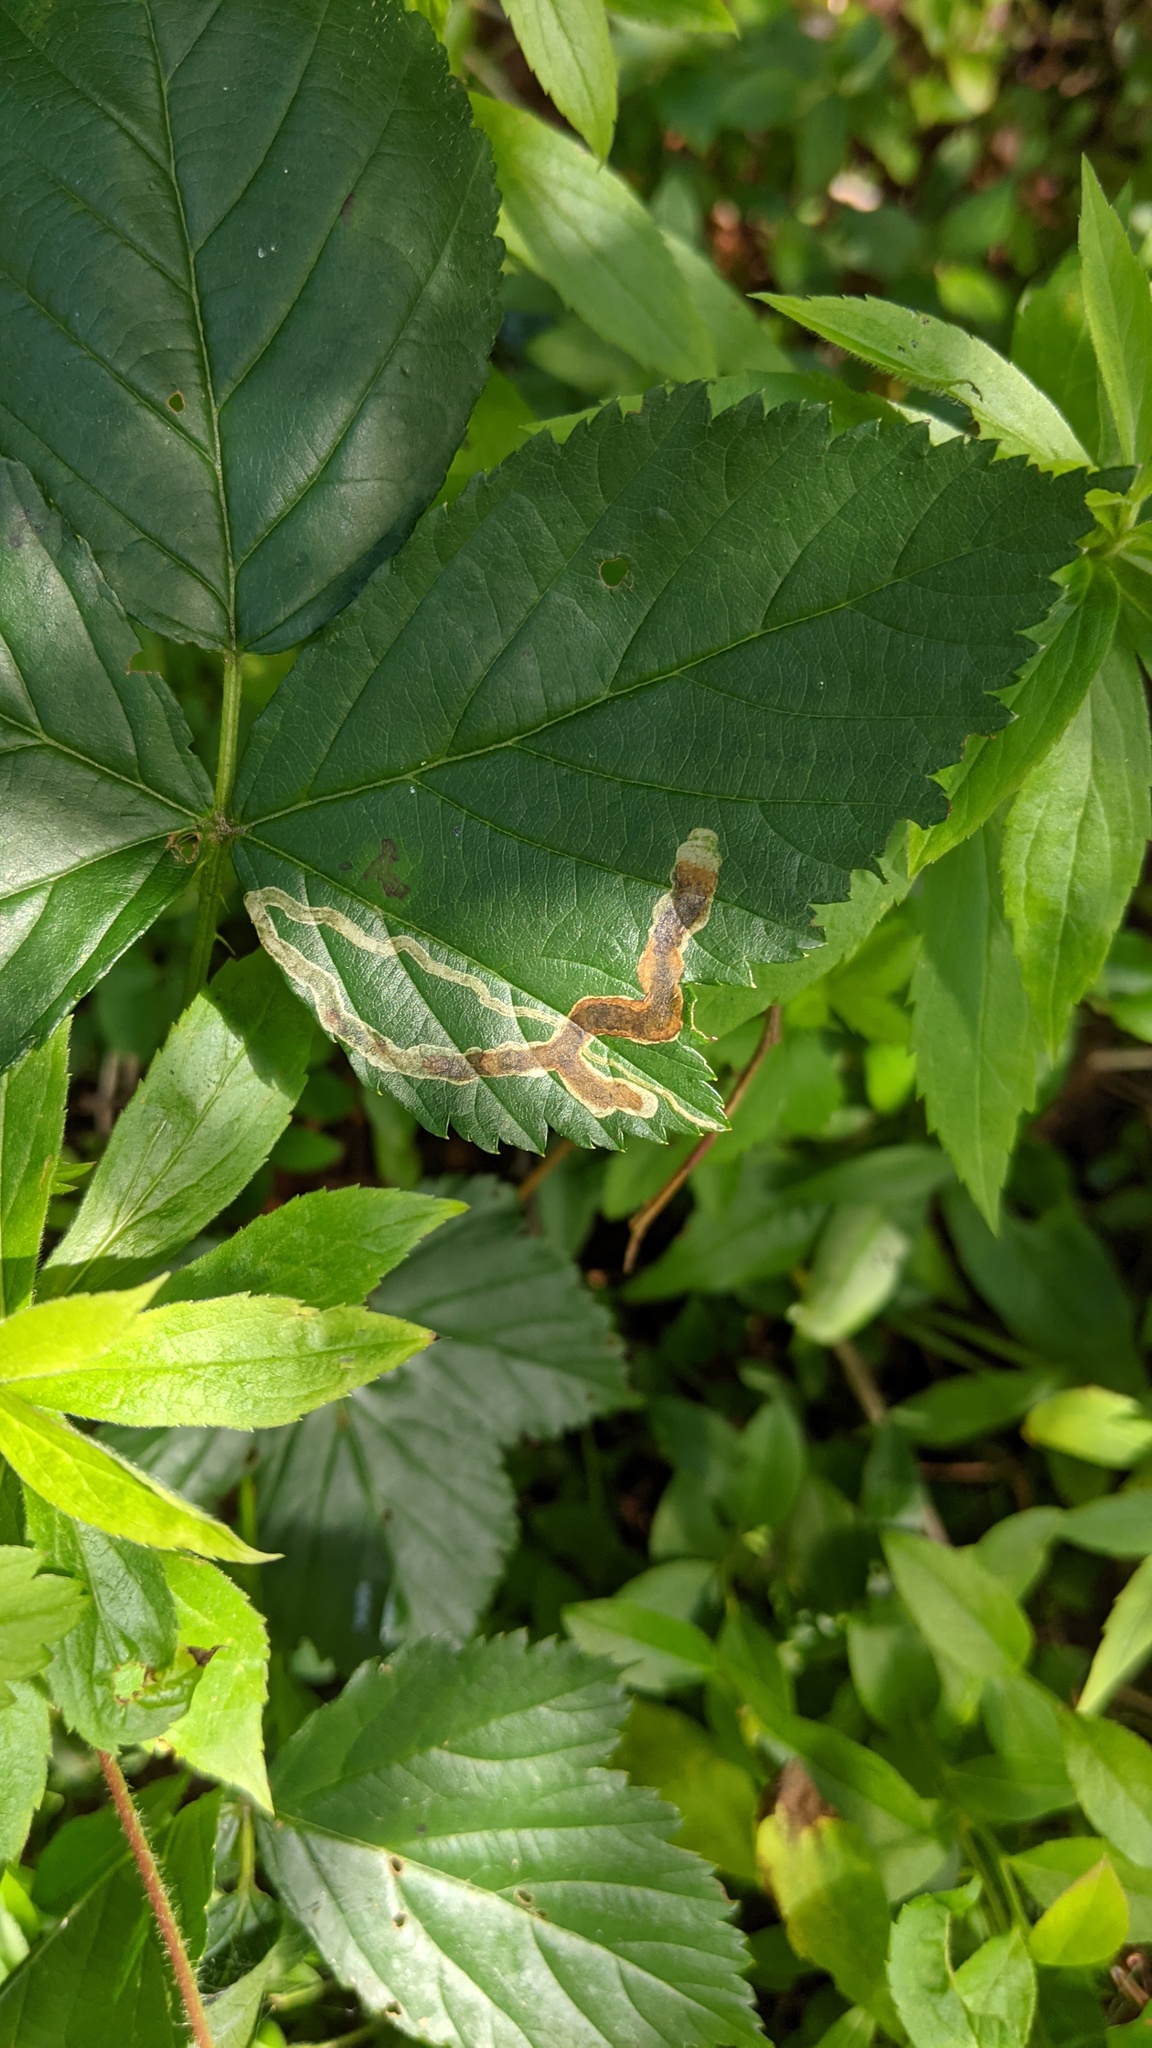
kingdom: Animalia
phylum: Arthropoda
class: Insecta
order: Diptera
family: Agromyzidae
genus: Agromyza
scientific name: Agromyza vockerothi
